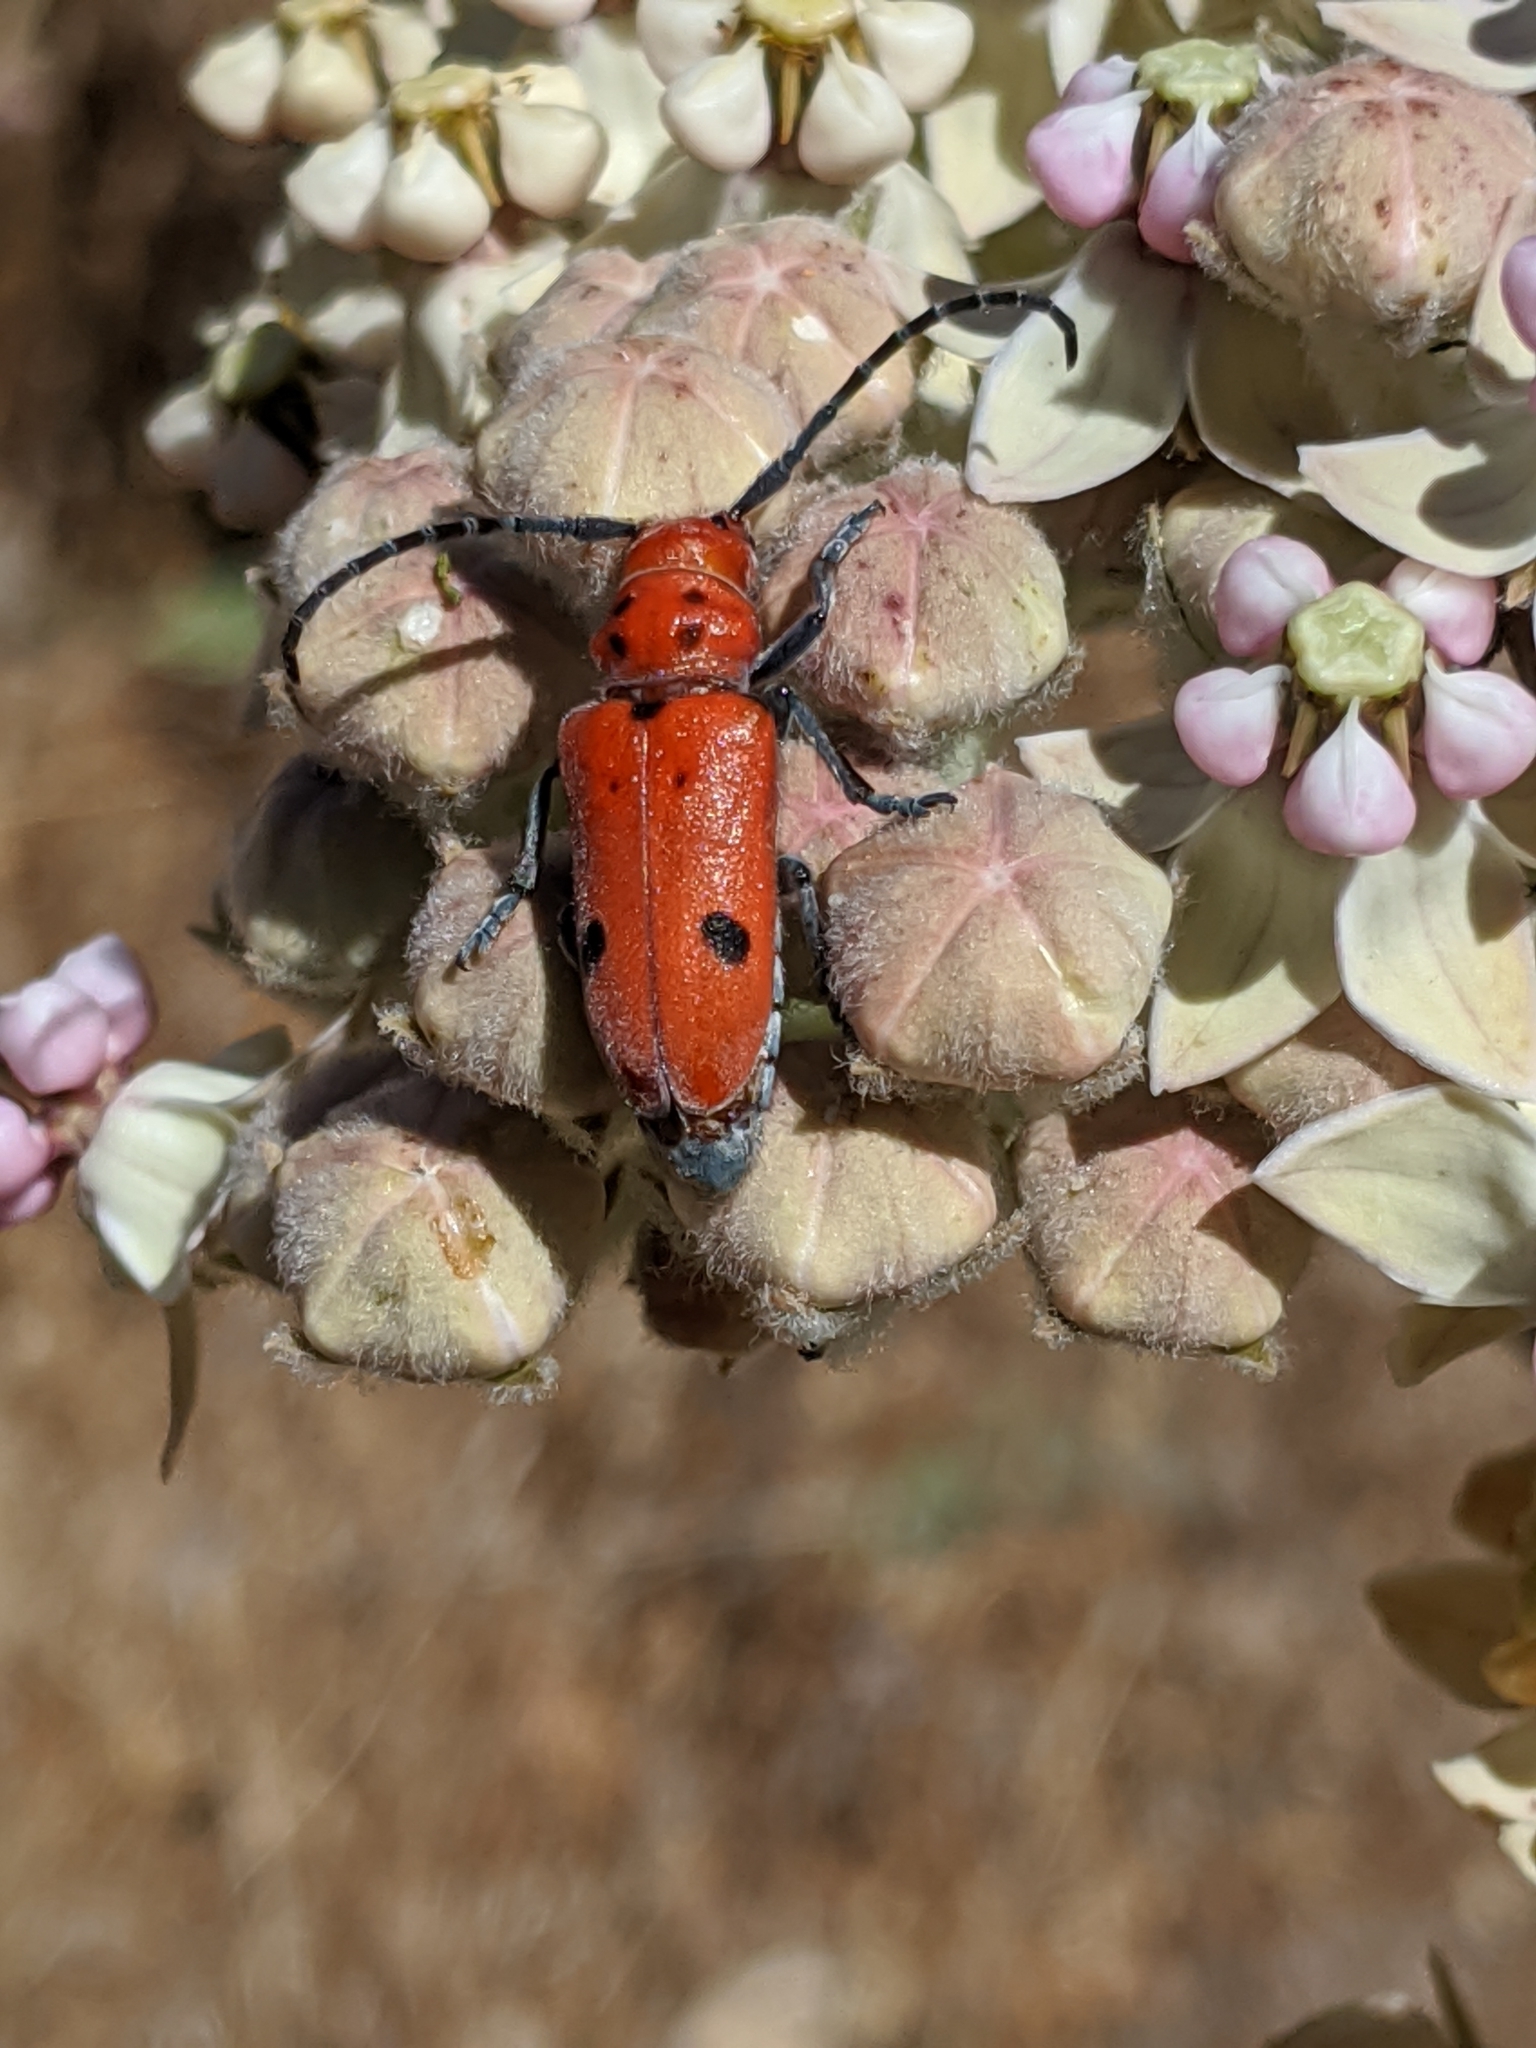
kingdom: Animalia
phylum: Arthropoda
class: Insecta
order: Coleoptera
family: Cerambycidae
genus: Tetraopes
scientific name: Tetraopes basalis
